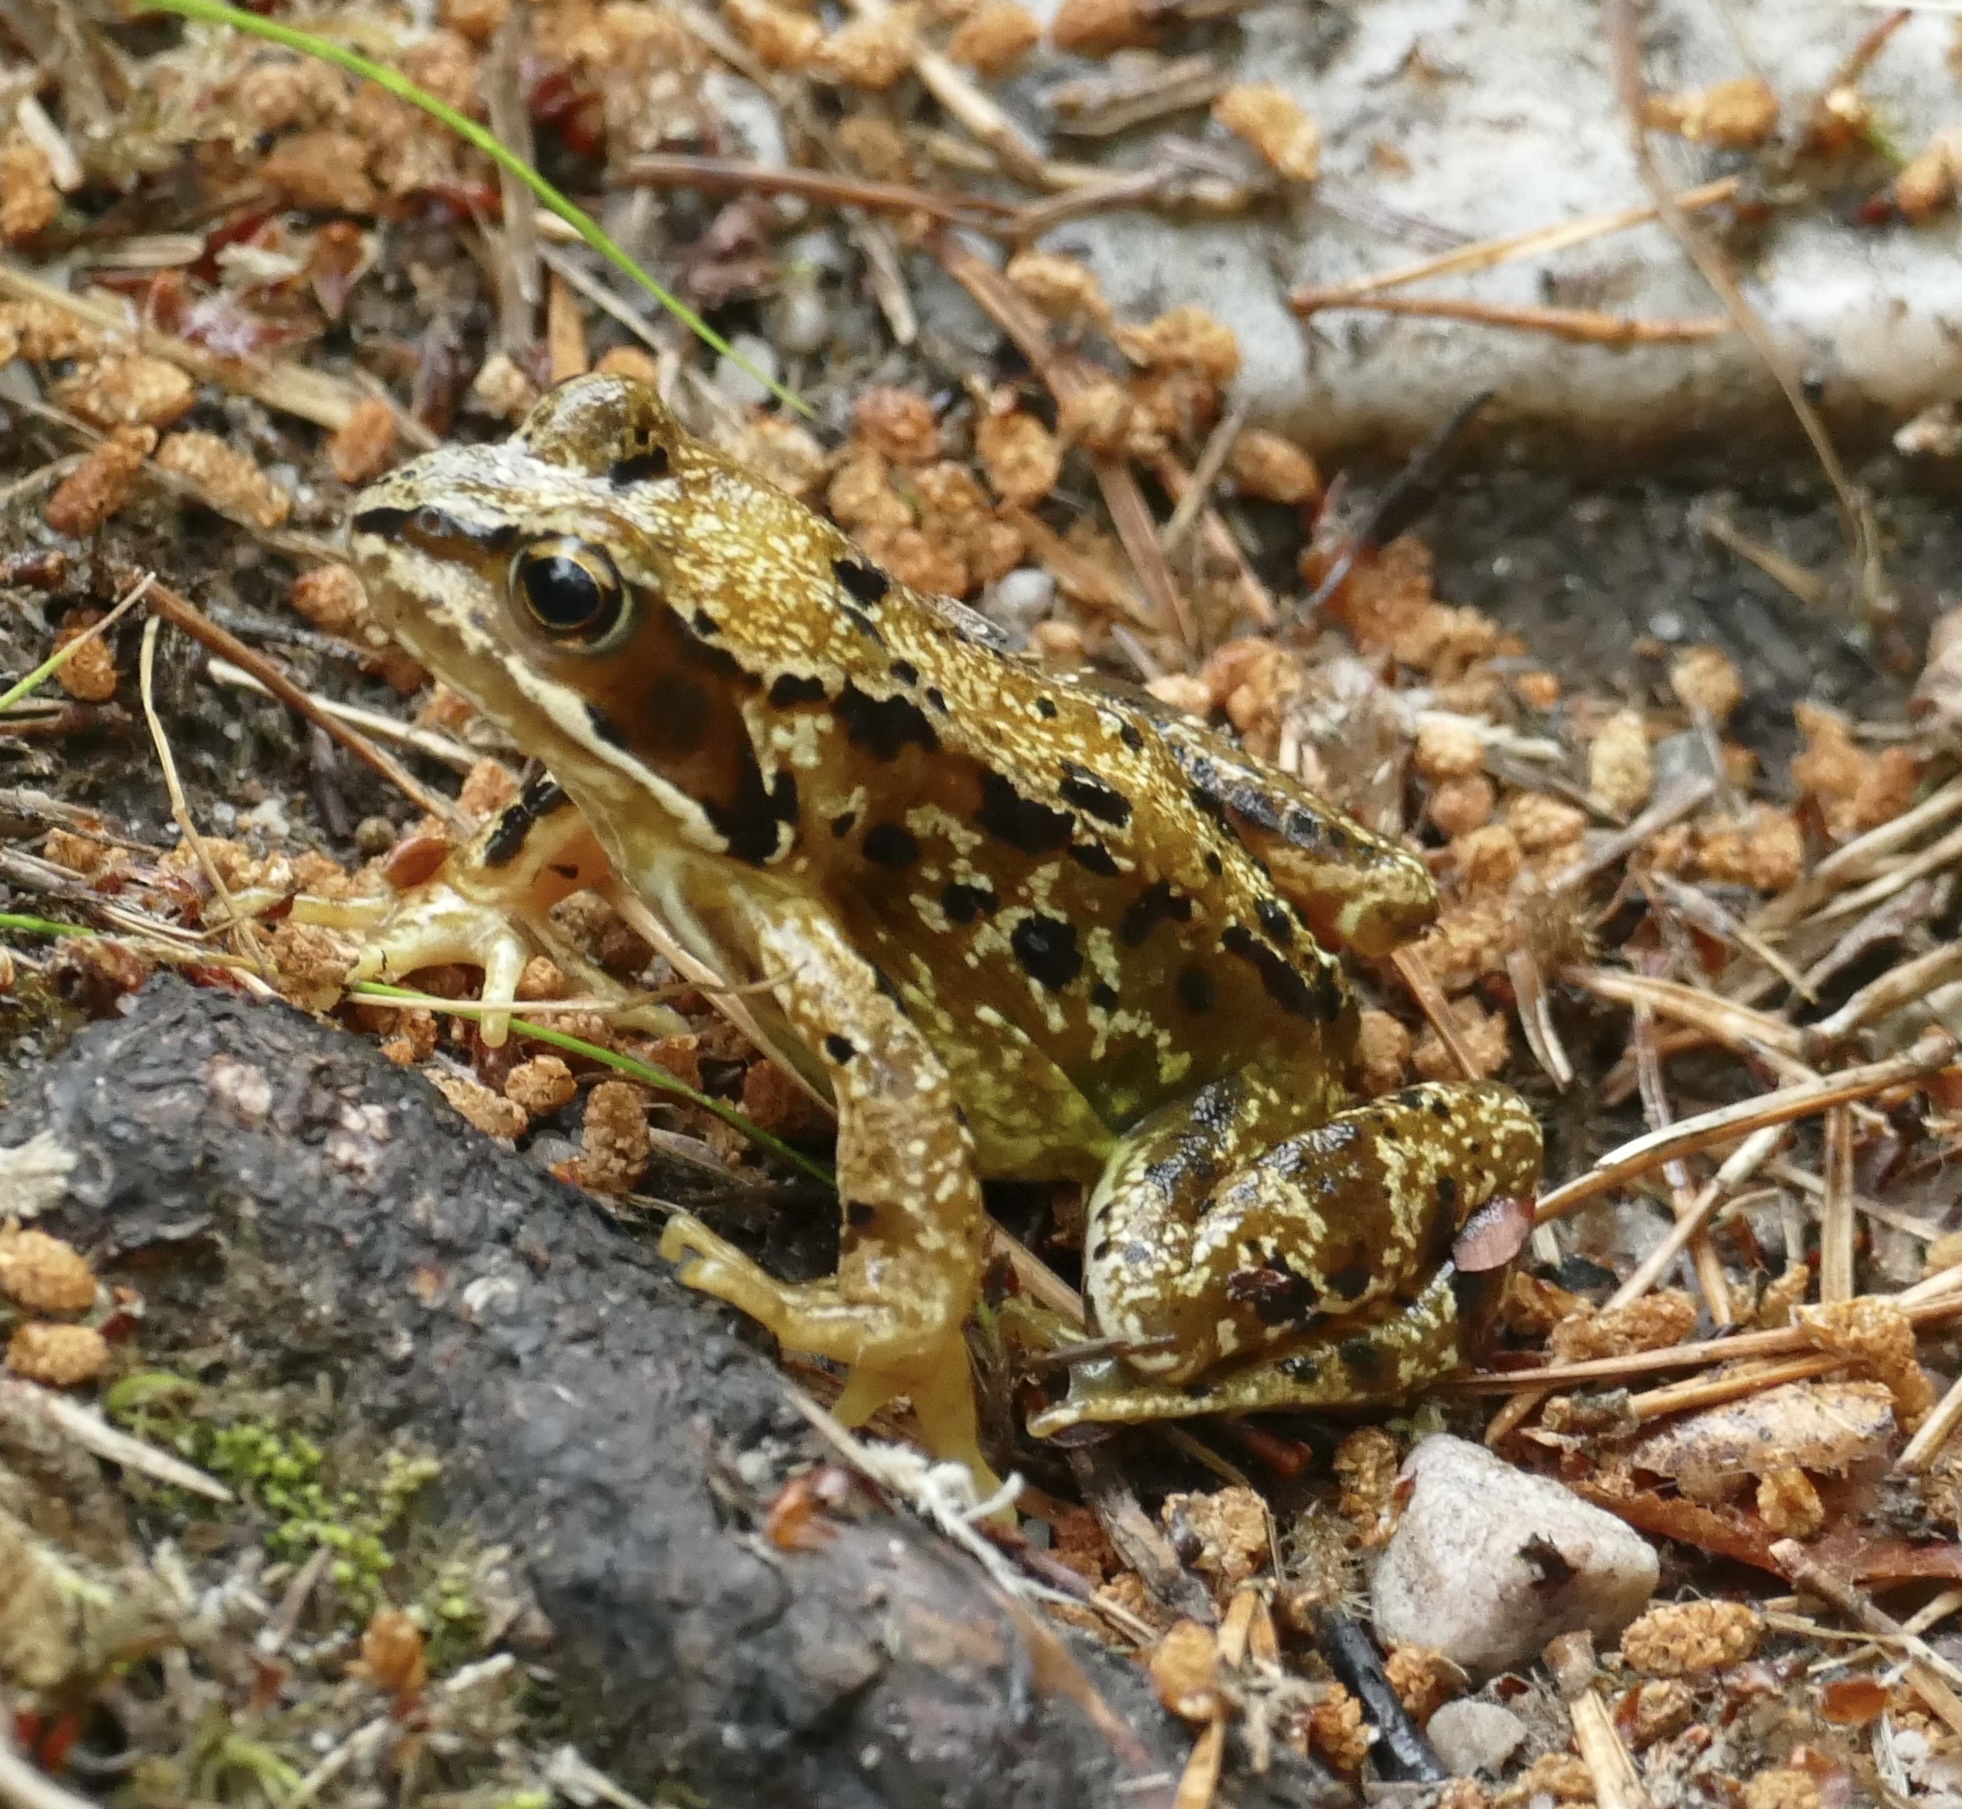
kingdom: Animalia
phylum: Chordata
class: Amphibia
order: Anura
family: Ranidae
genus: Rana
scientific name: Rana temporaria
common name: Common frog
